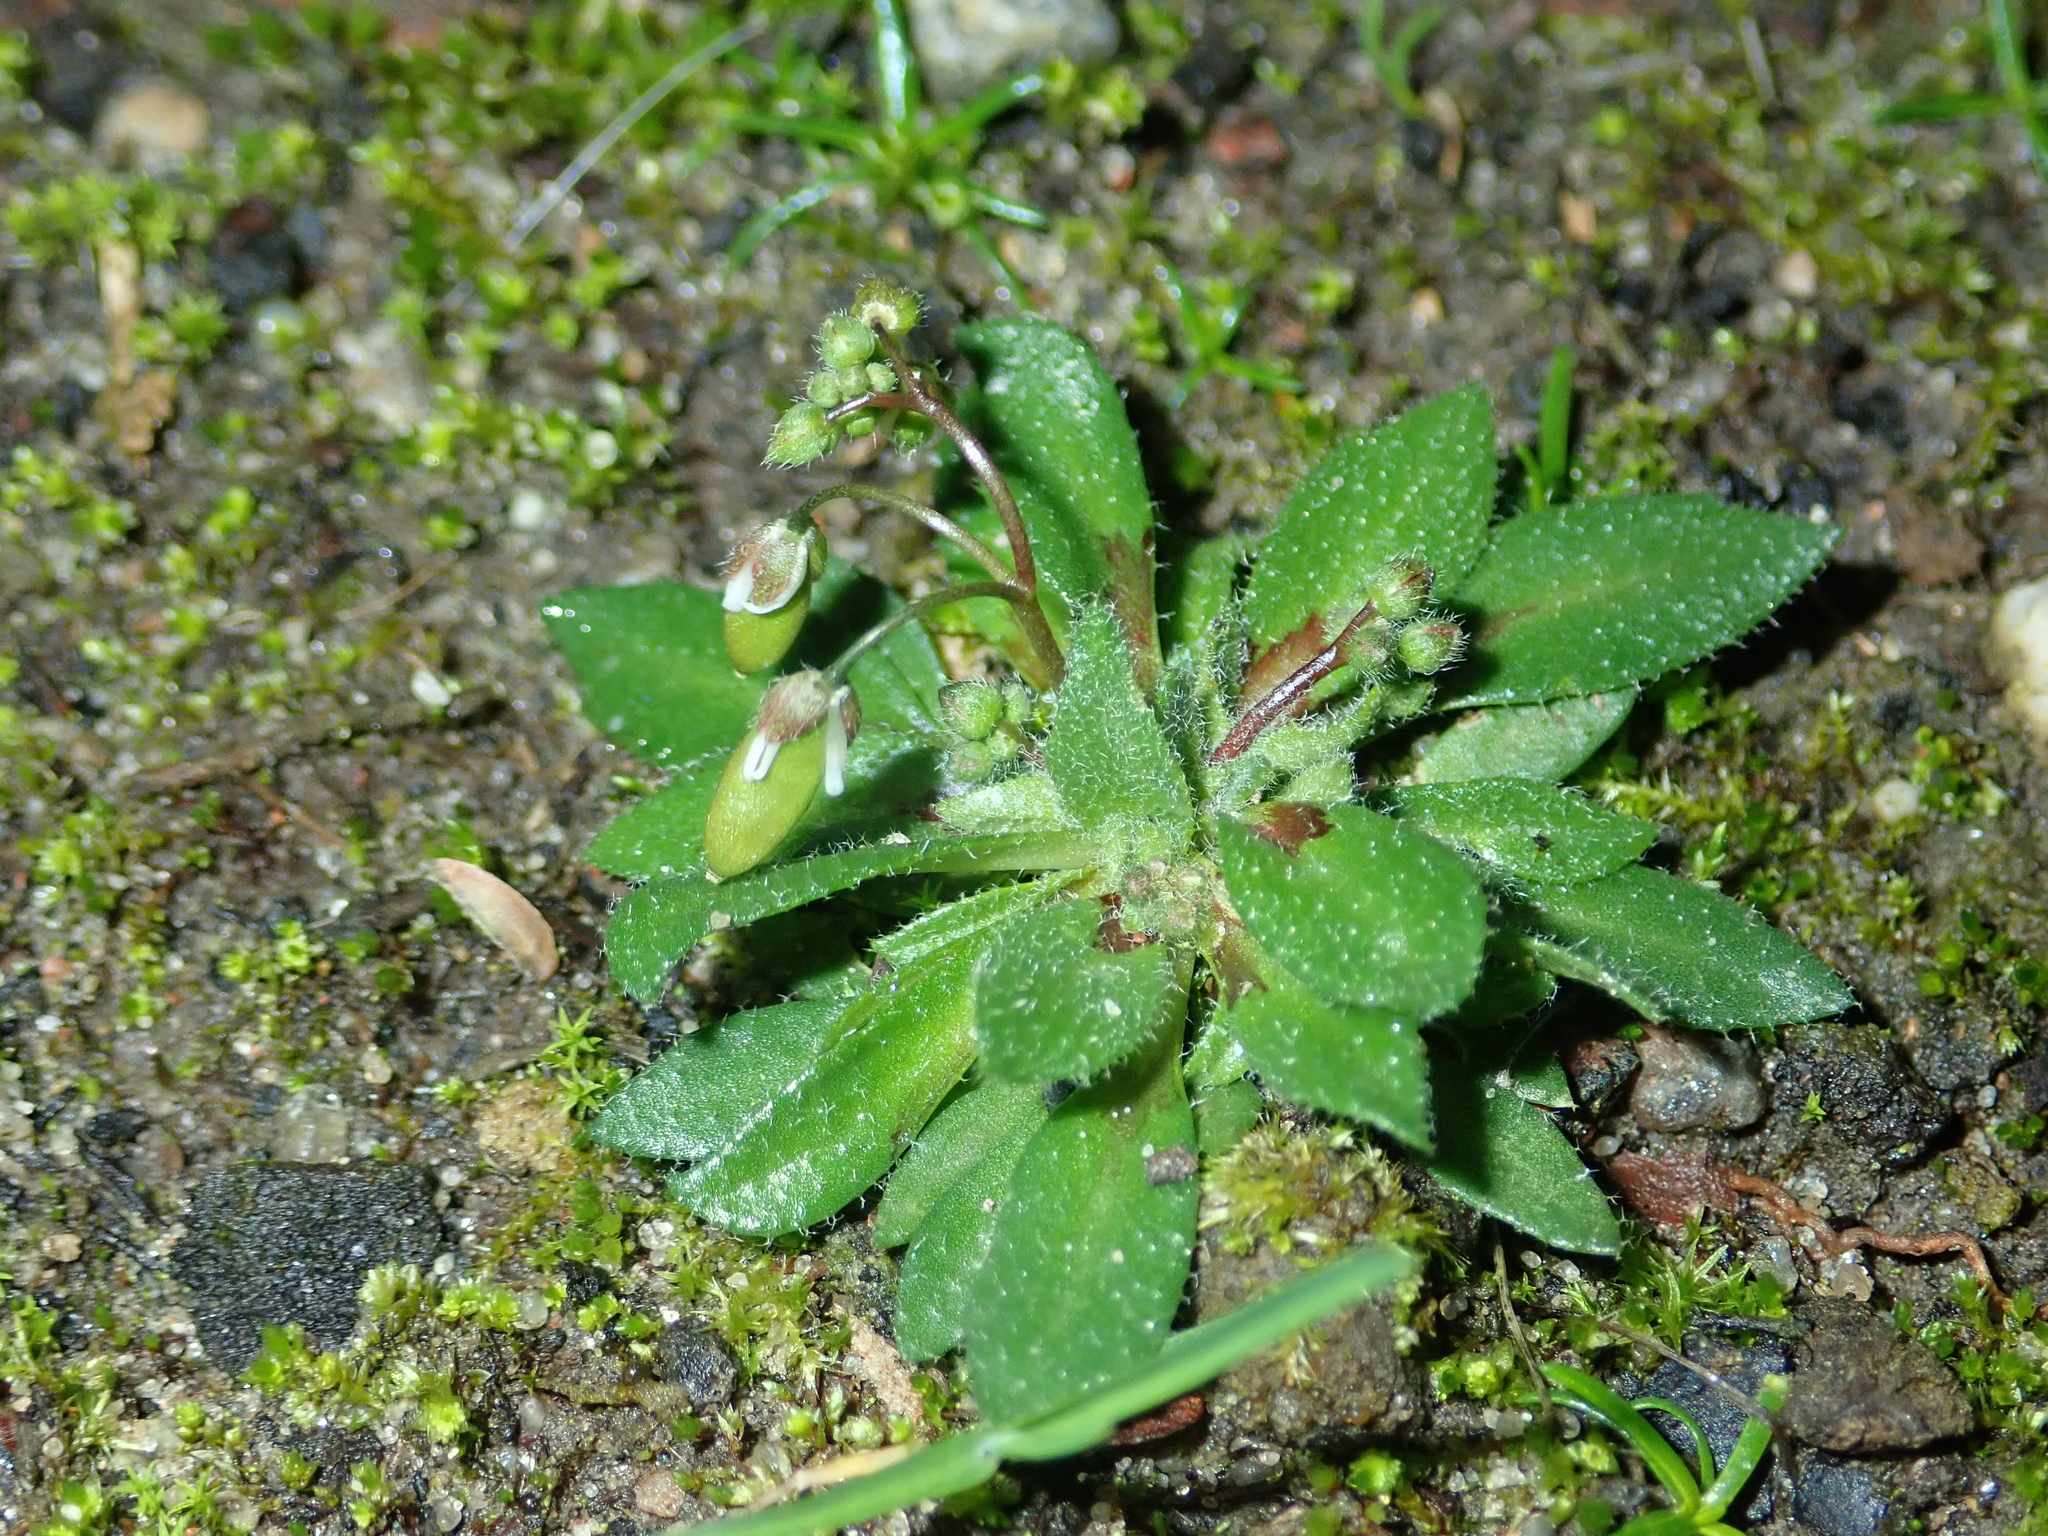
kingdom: Plantae
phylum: Tracheophyta
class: Magnoliopsida
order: Brassicales
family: Brassicaceae
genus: Draba
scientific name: Draba verna
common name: Spring draba
